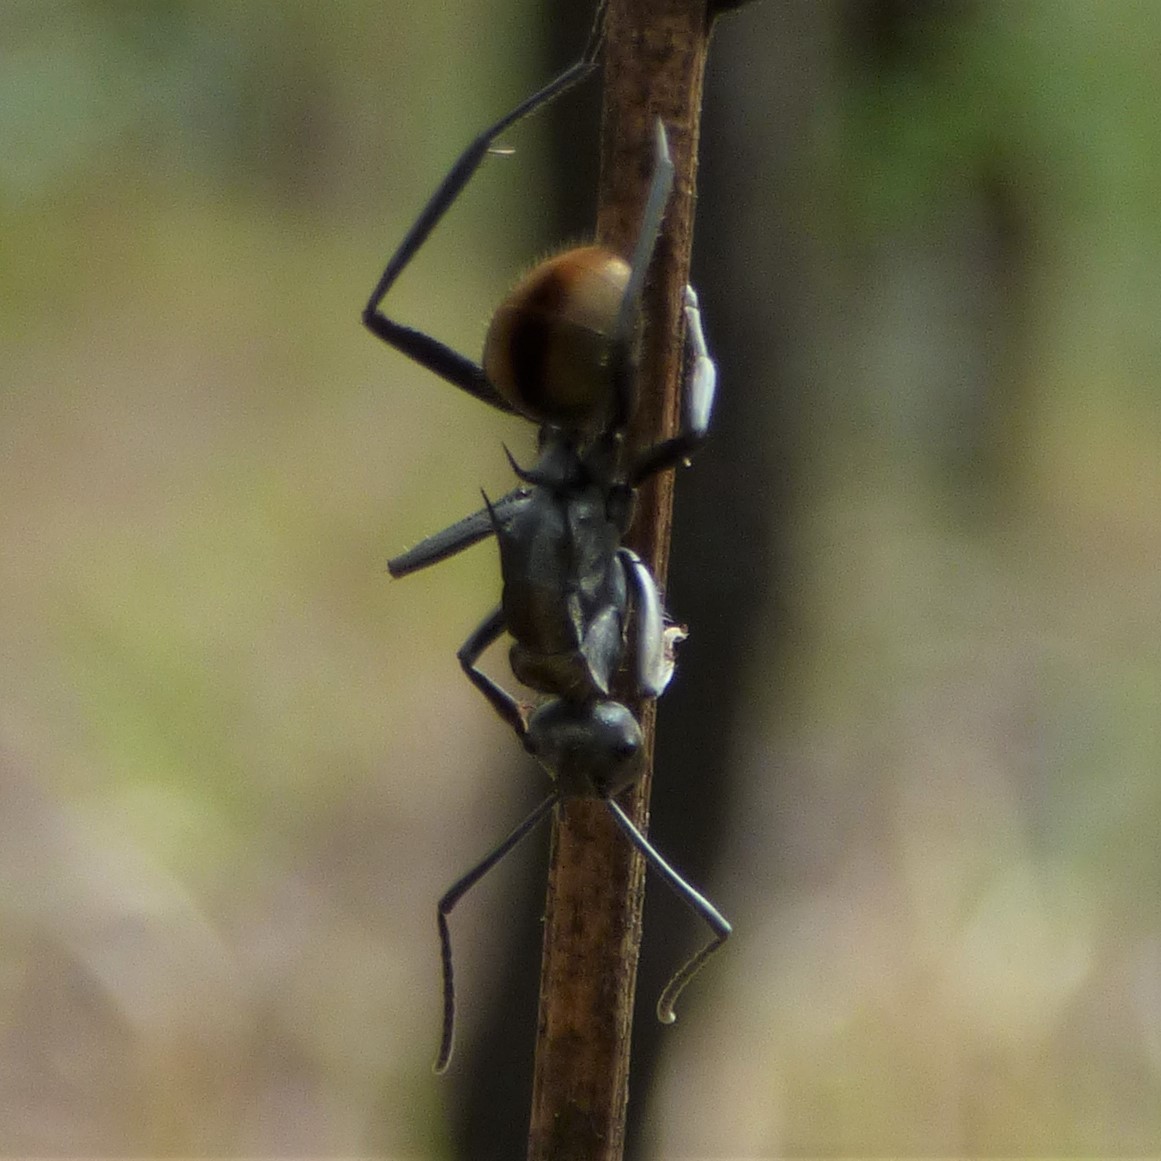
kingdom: Animalia
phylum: Arthropoda
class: Insecta
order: Hymenoptera
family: Formicidae
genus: Polyrhachis
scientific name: Polyrhachis
